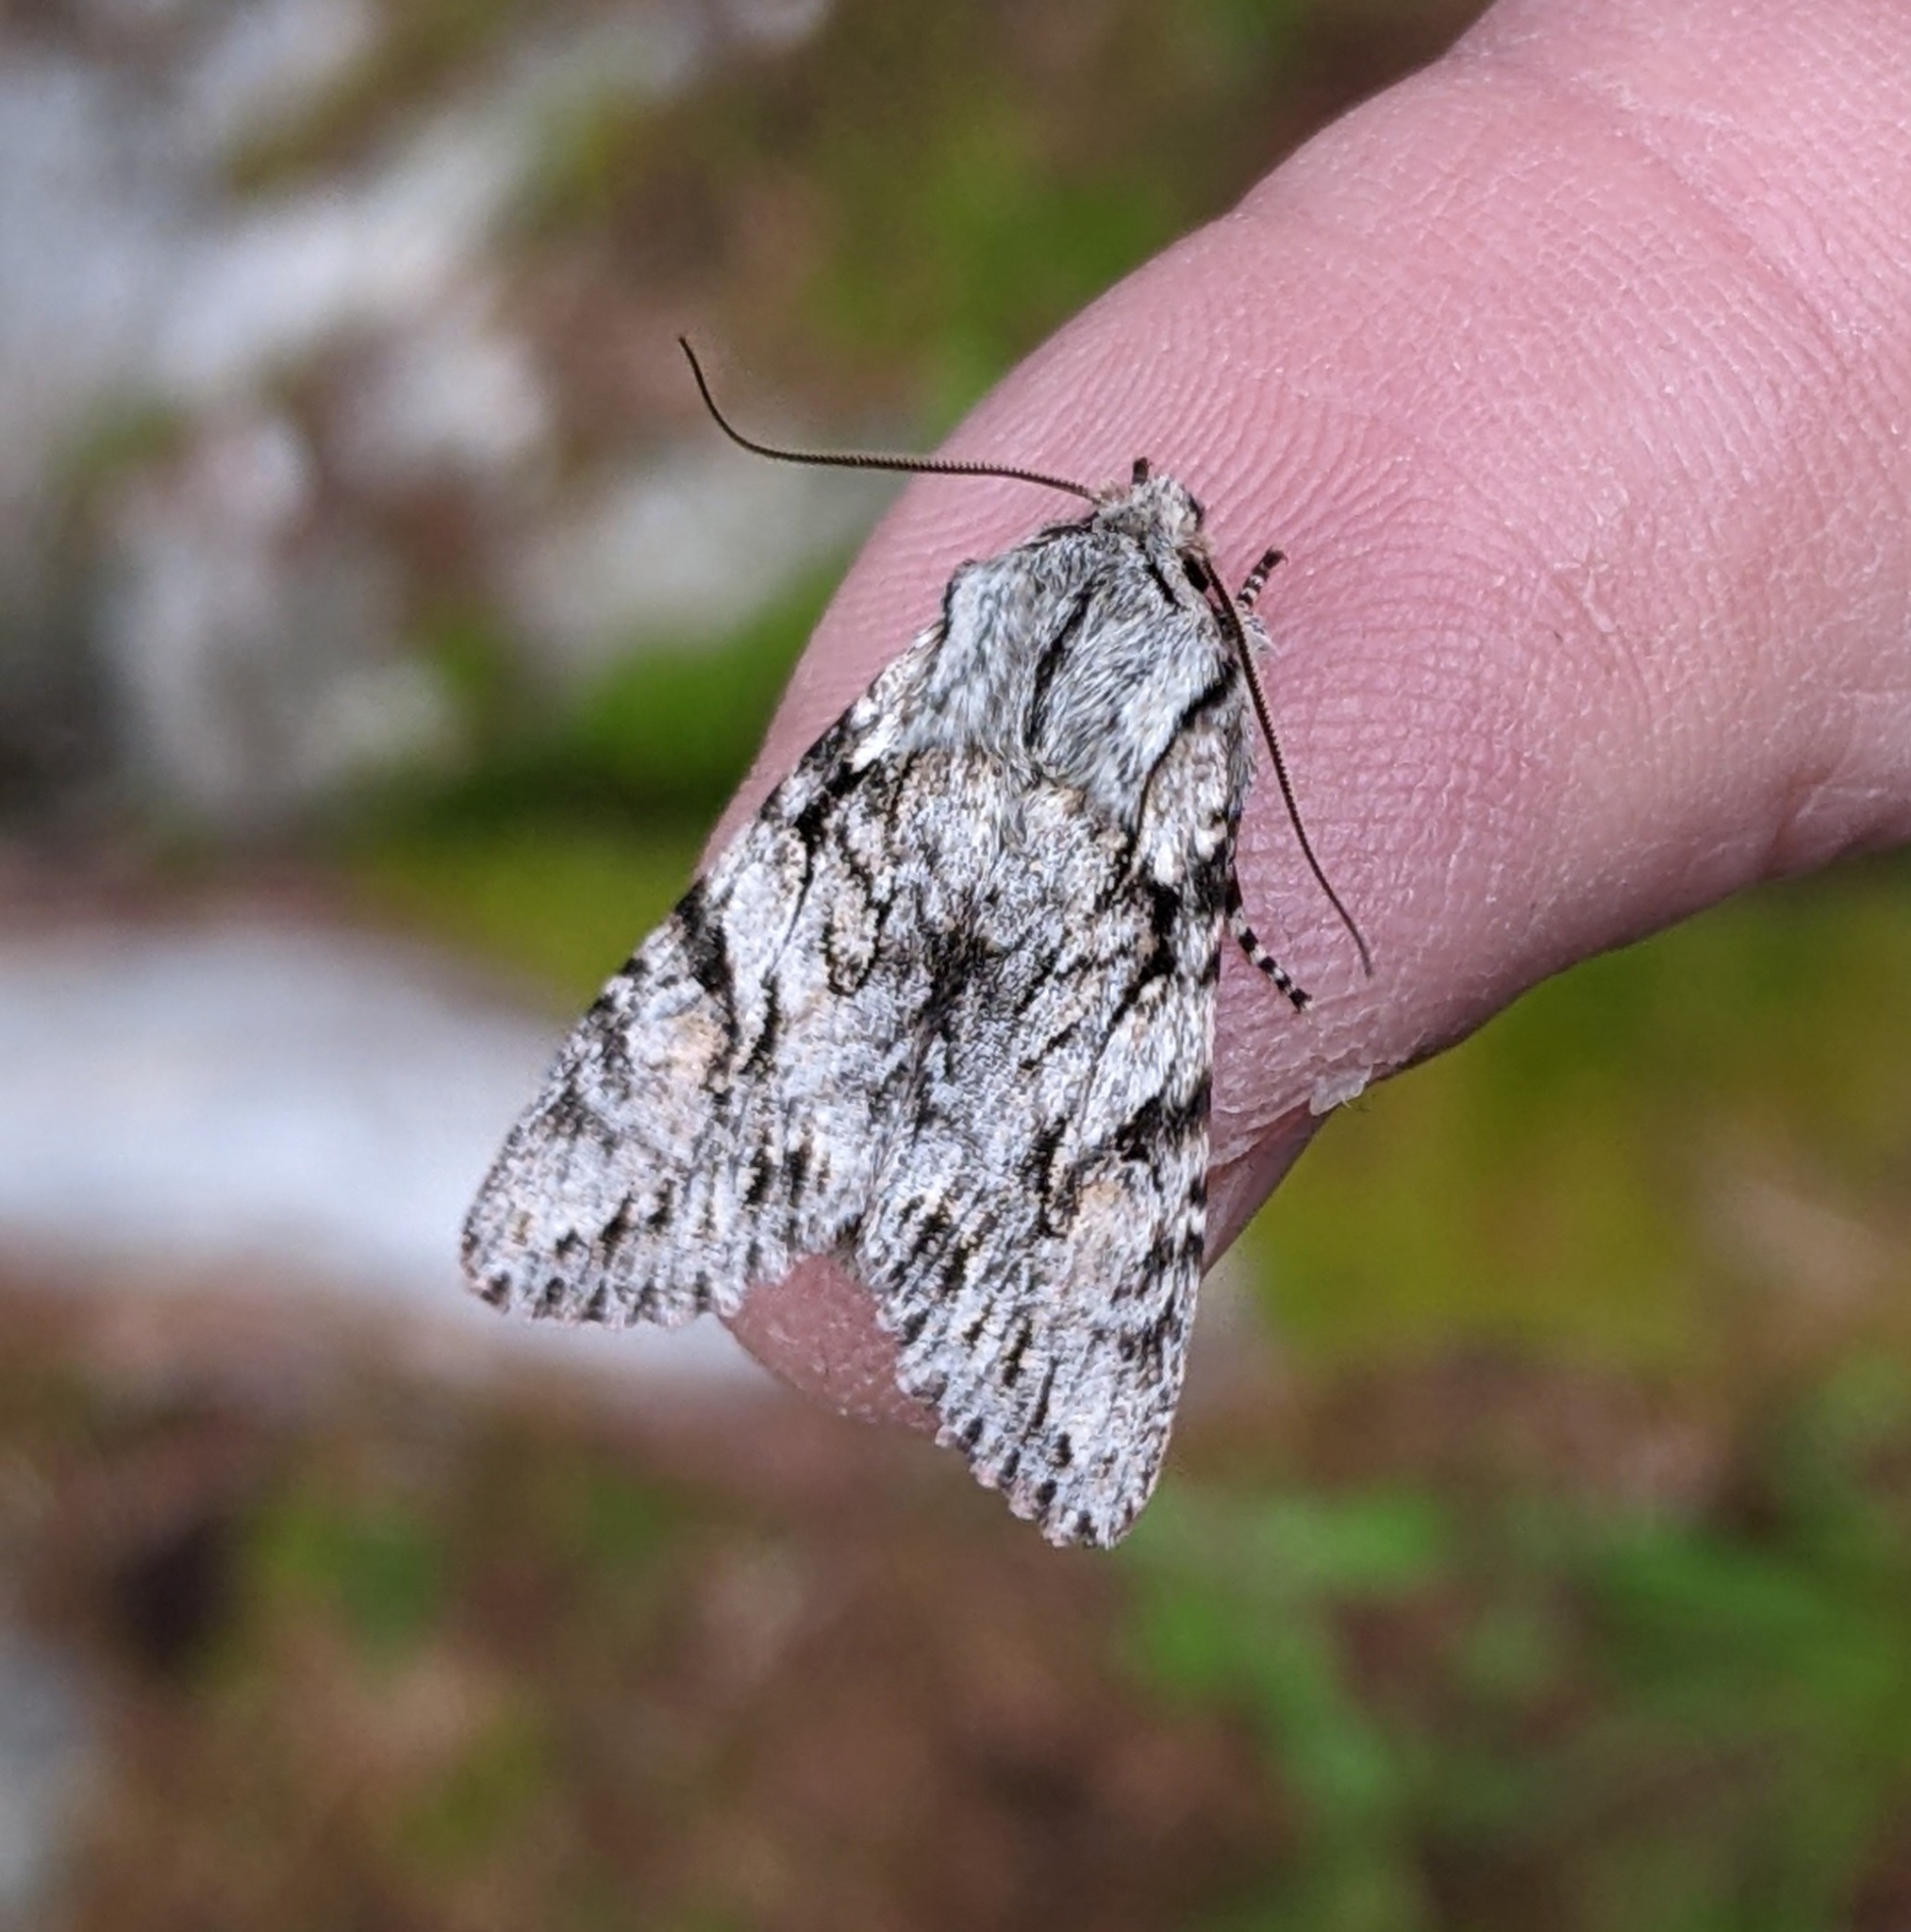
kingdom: Animalia
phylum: Arthropoda
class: Insecta
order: Lepidoptera
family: Noctuidae
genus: Egira
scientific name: Egira simplex
